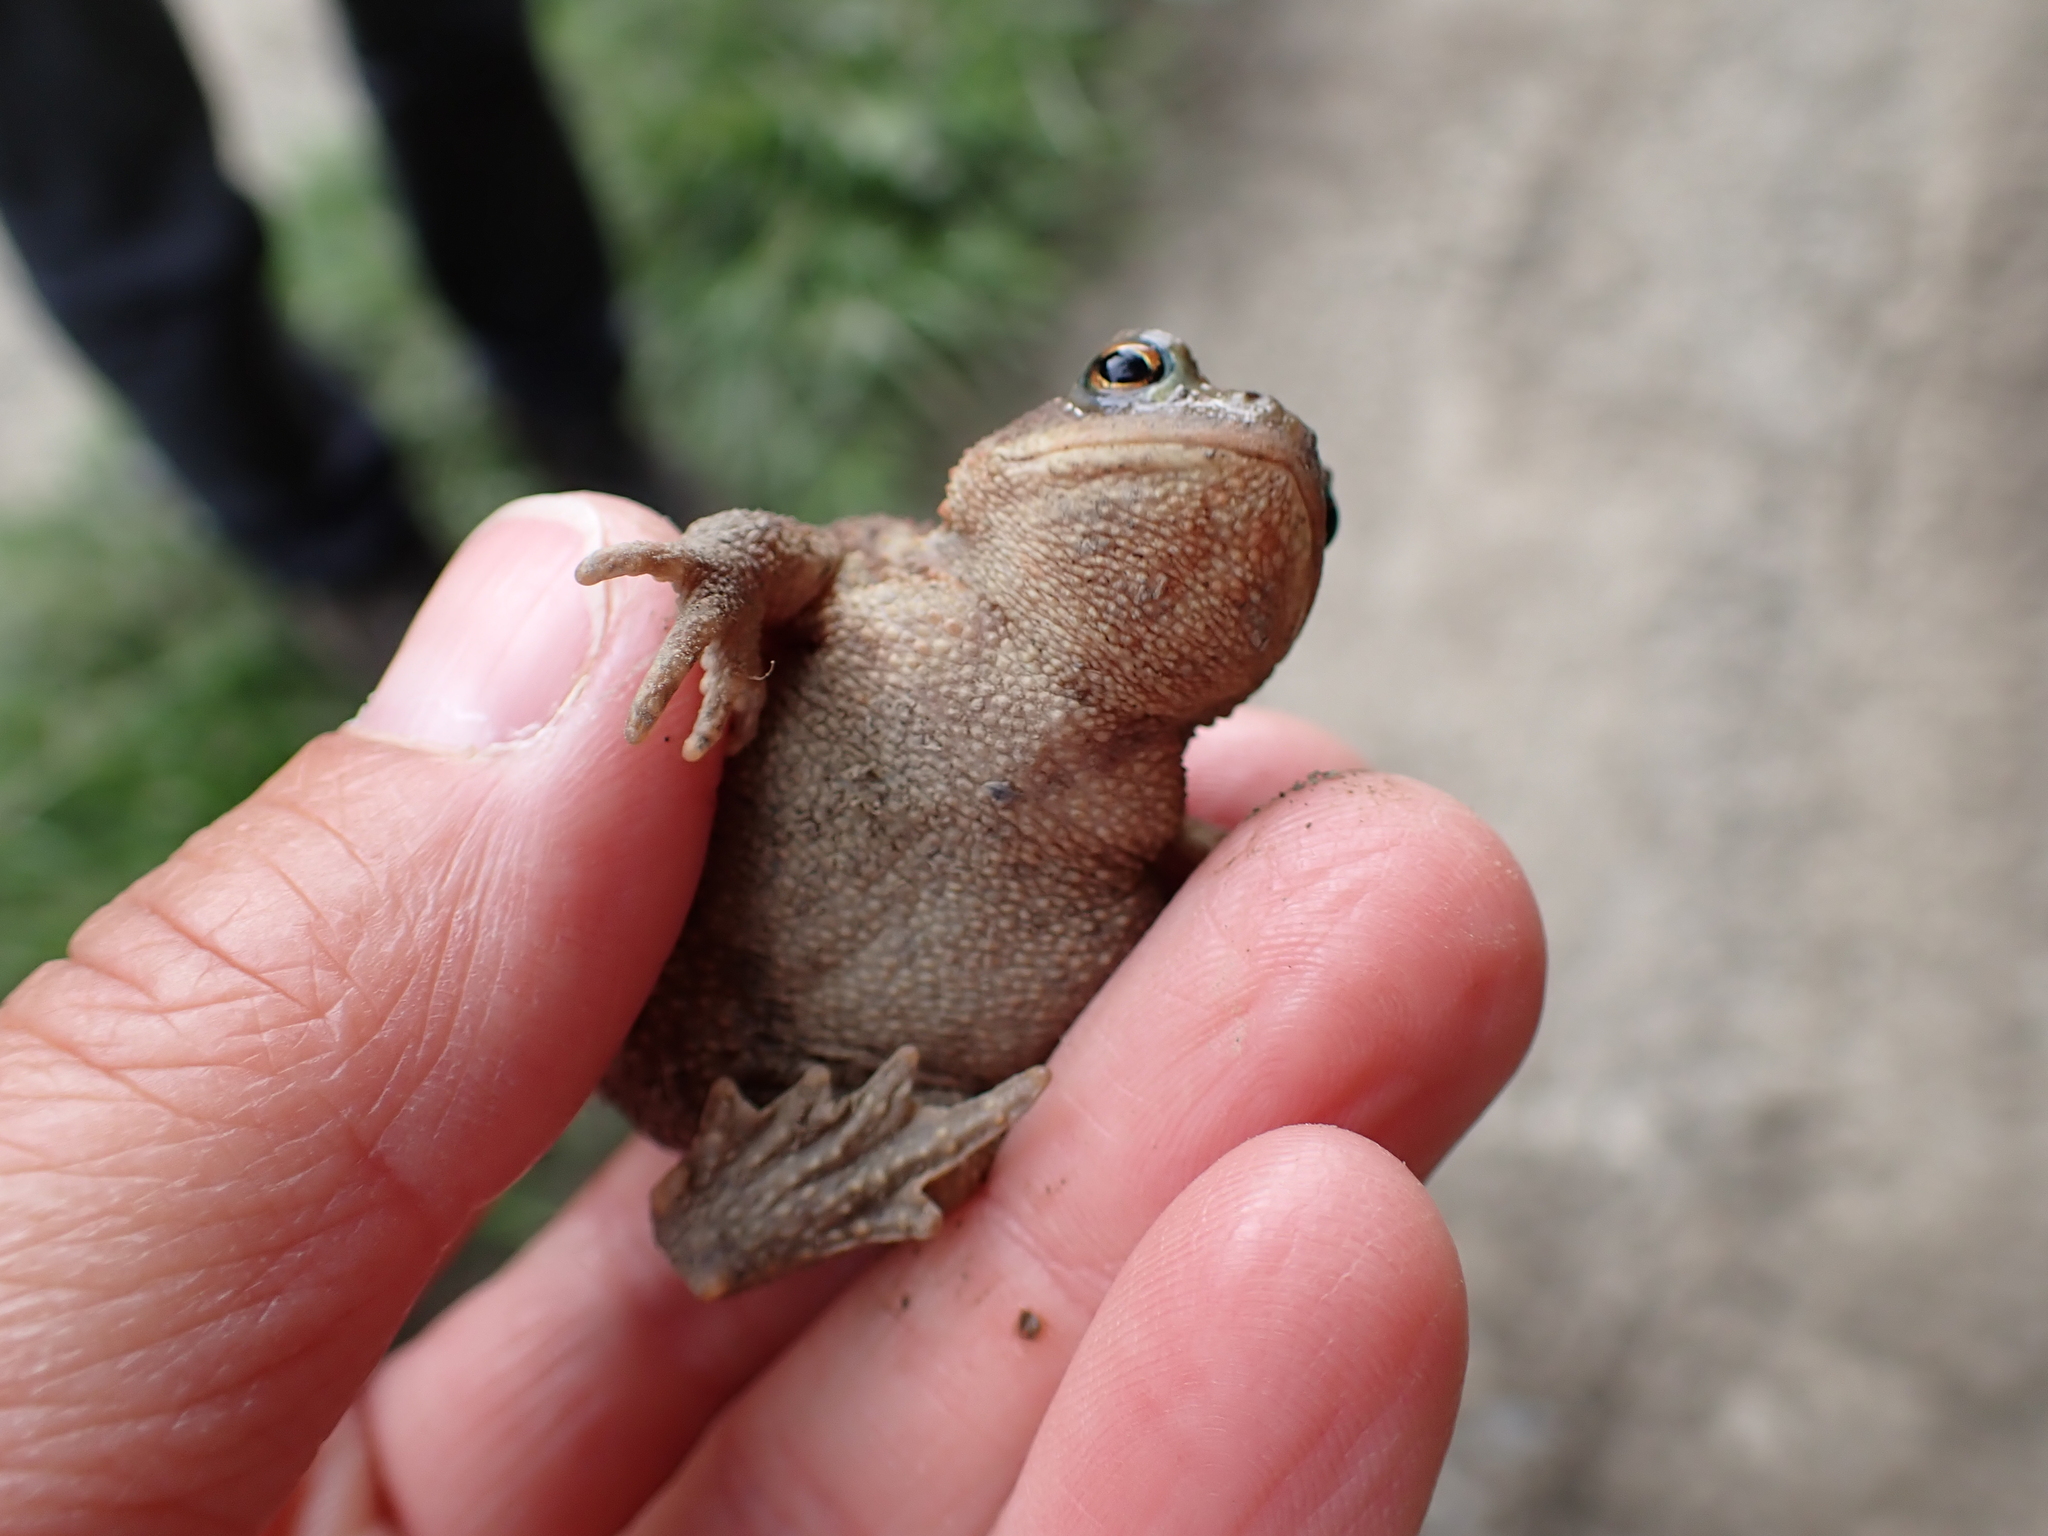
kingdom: Animalia
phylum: Chordata
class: Amphibia
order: Anura
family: Bufonidae
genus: Bufo
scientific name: Bufo bufo
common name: Common toad
